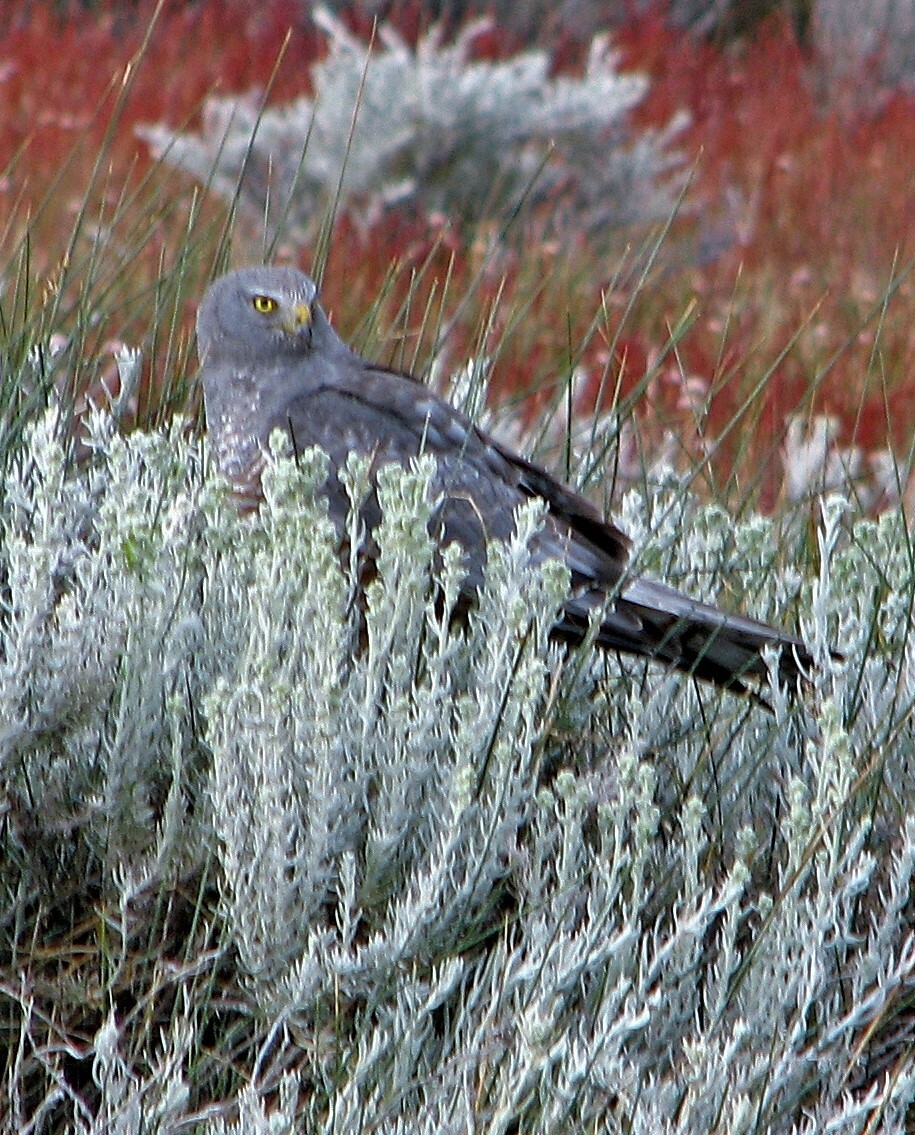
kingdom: Animalia
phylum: Chordata
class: Aves
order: Accipitriformes
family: Accipitridae
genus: Circus
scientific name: Circus cinereus
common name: Cinereous harrier
